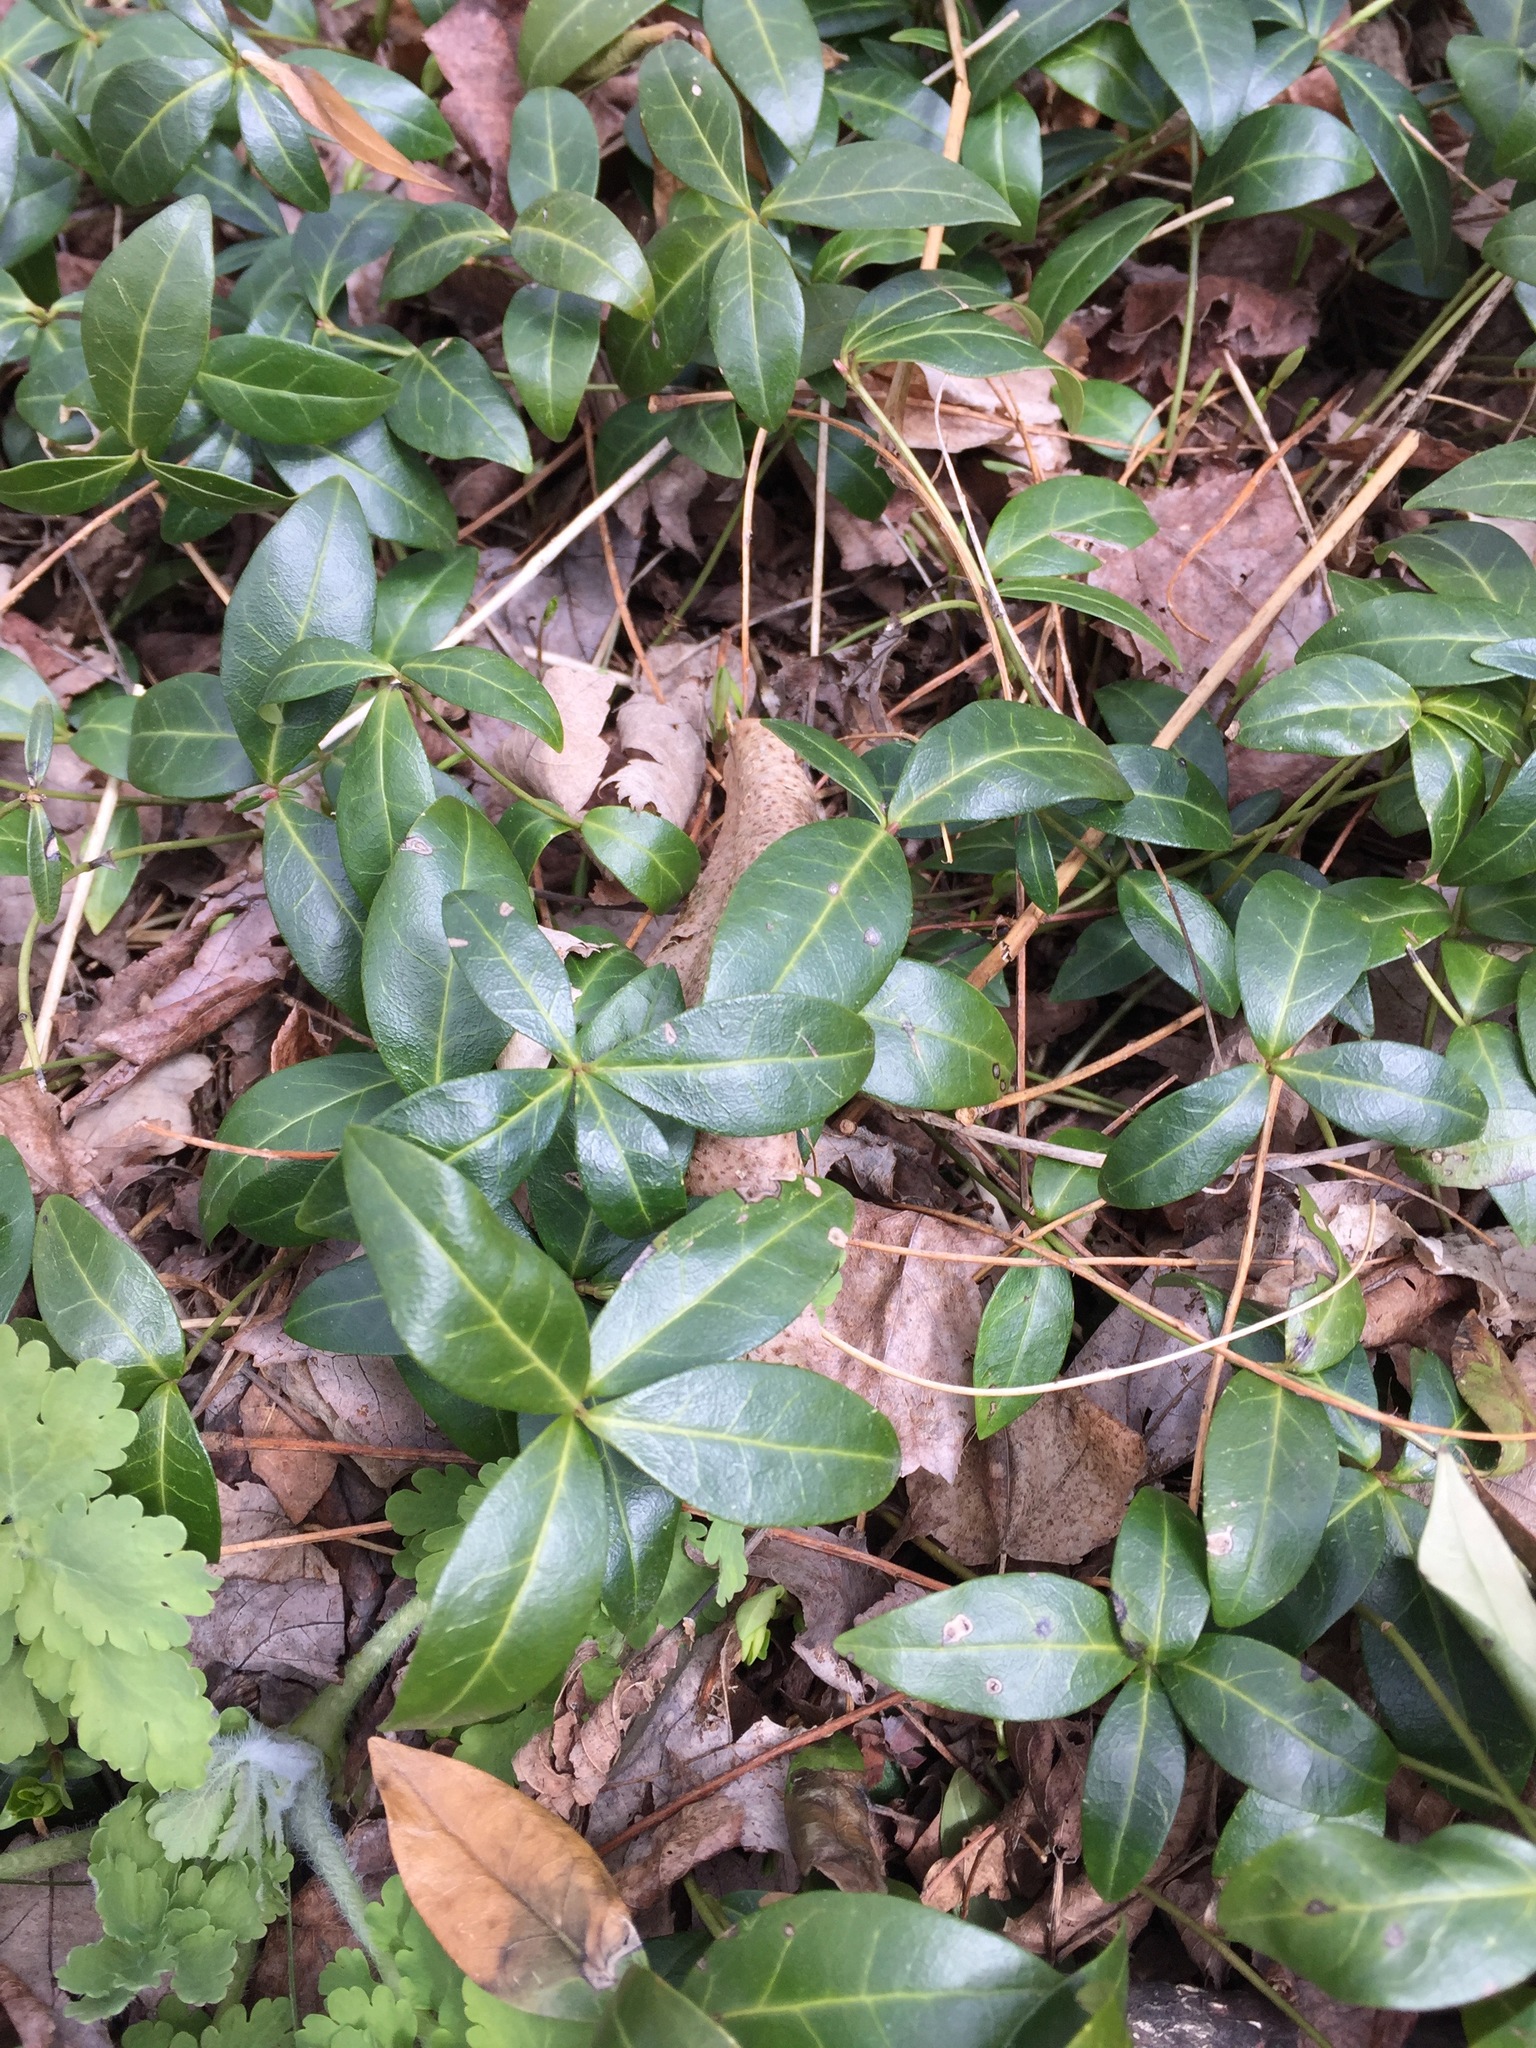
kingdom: Plantae
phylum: Tracheophyta
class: Magnoliopsida
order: Gentianales
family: Apocynaceae
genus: Vinca
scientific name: Vinca minor
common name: Lesser periwinkle
